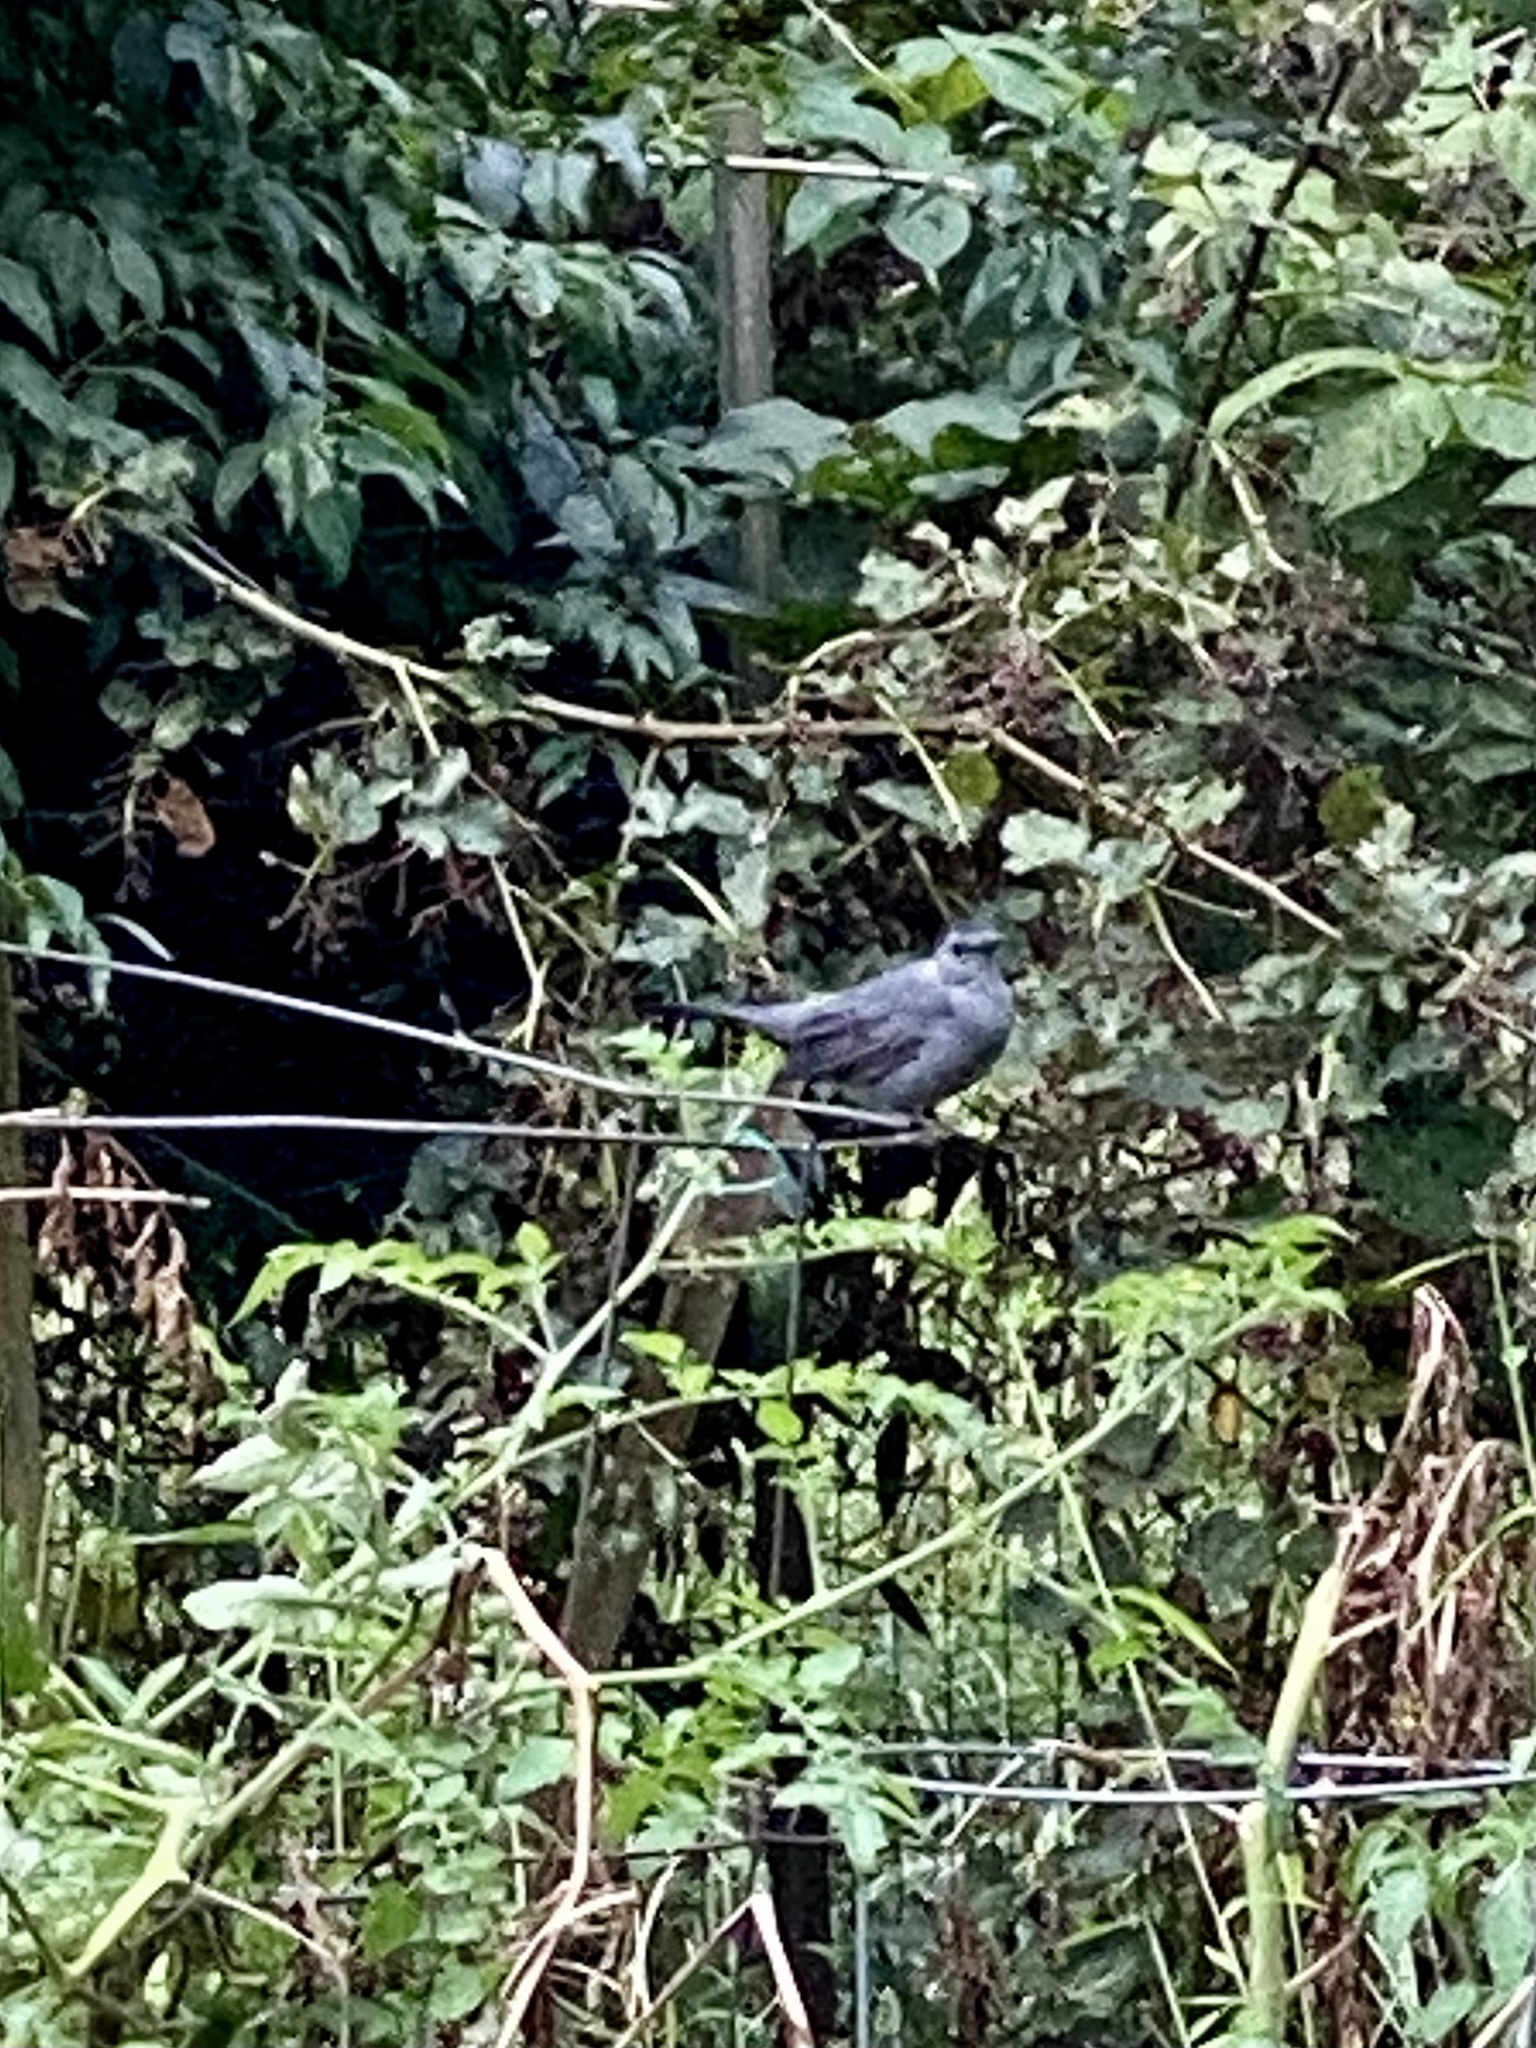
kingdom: Animalia
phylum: Chordata
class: Aves
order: Passeriformes
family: Mimidae
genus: Dumetella
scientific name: Dumetella carolinensis
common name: Gray catbird
